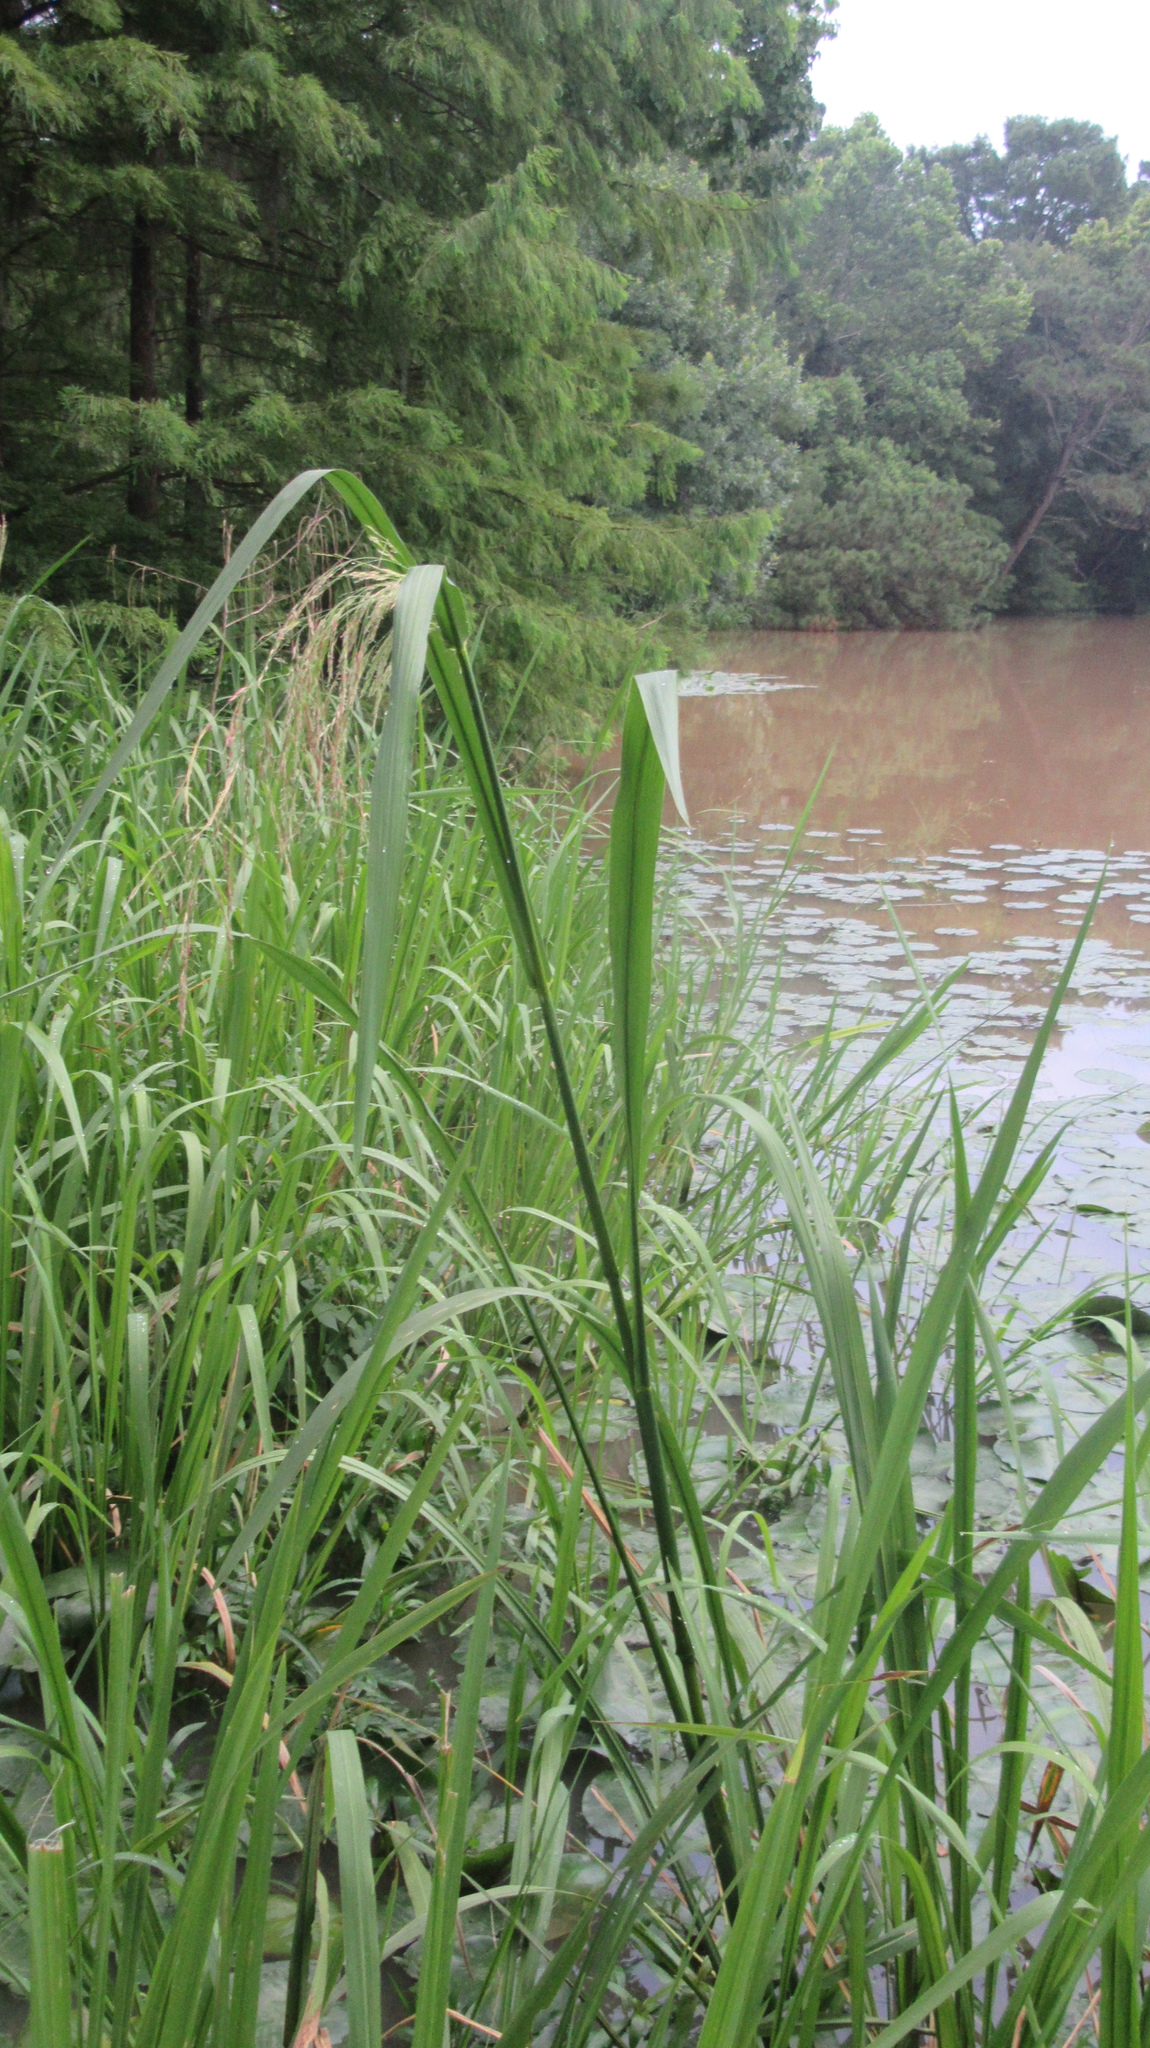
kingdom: Plantae
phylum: Tracheophyta
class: Liliopsida
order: Poales
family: Poaceae
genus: Zizaniopsis
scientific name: Zizaniopsis miliacea
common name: Giant-cutgrass
